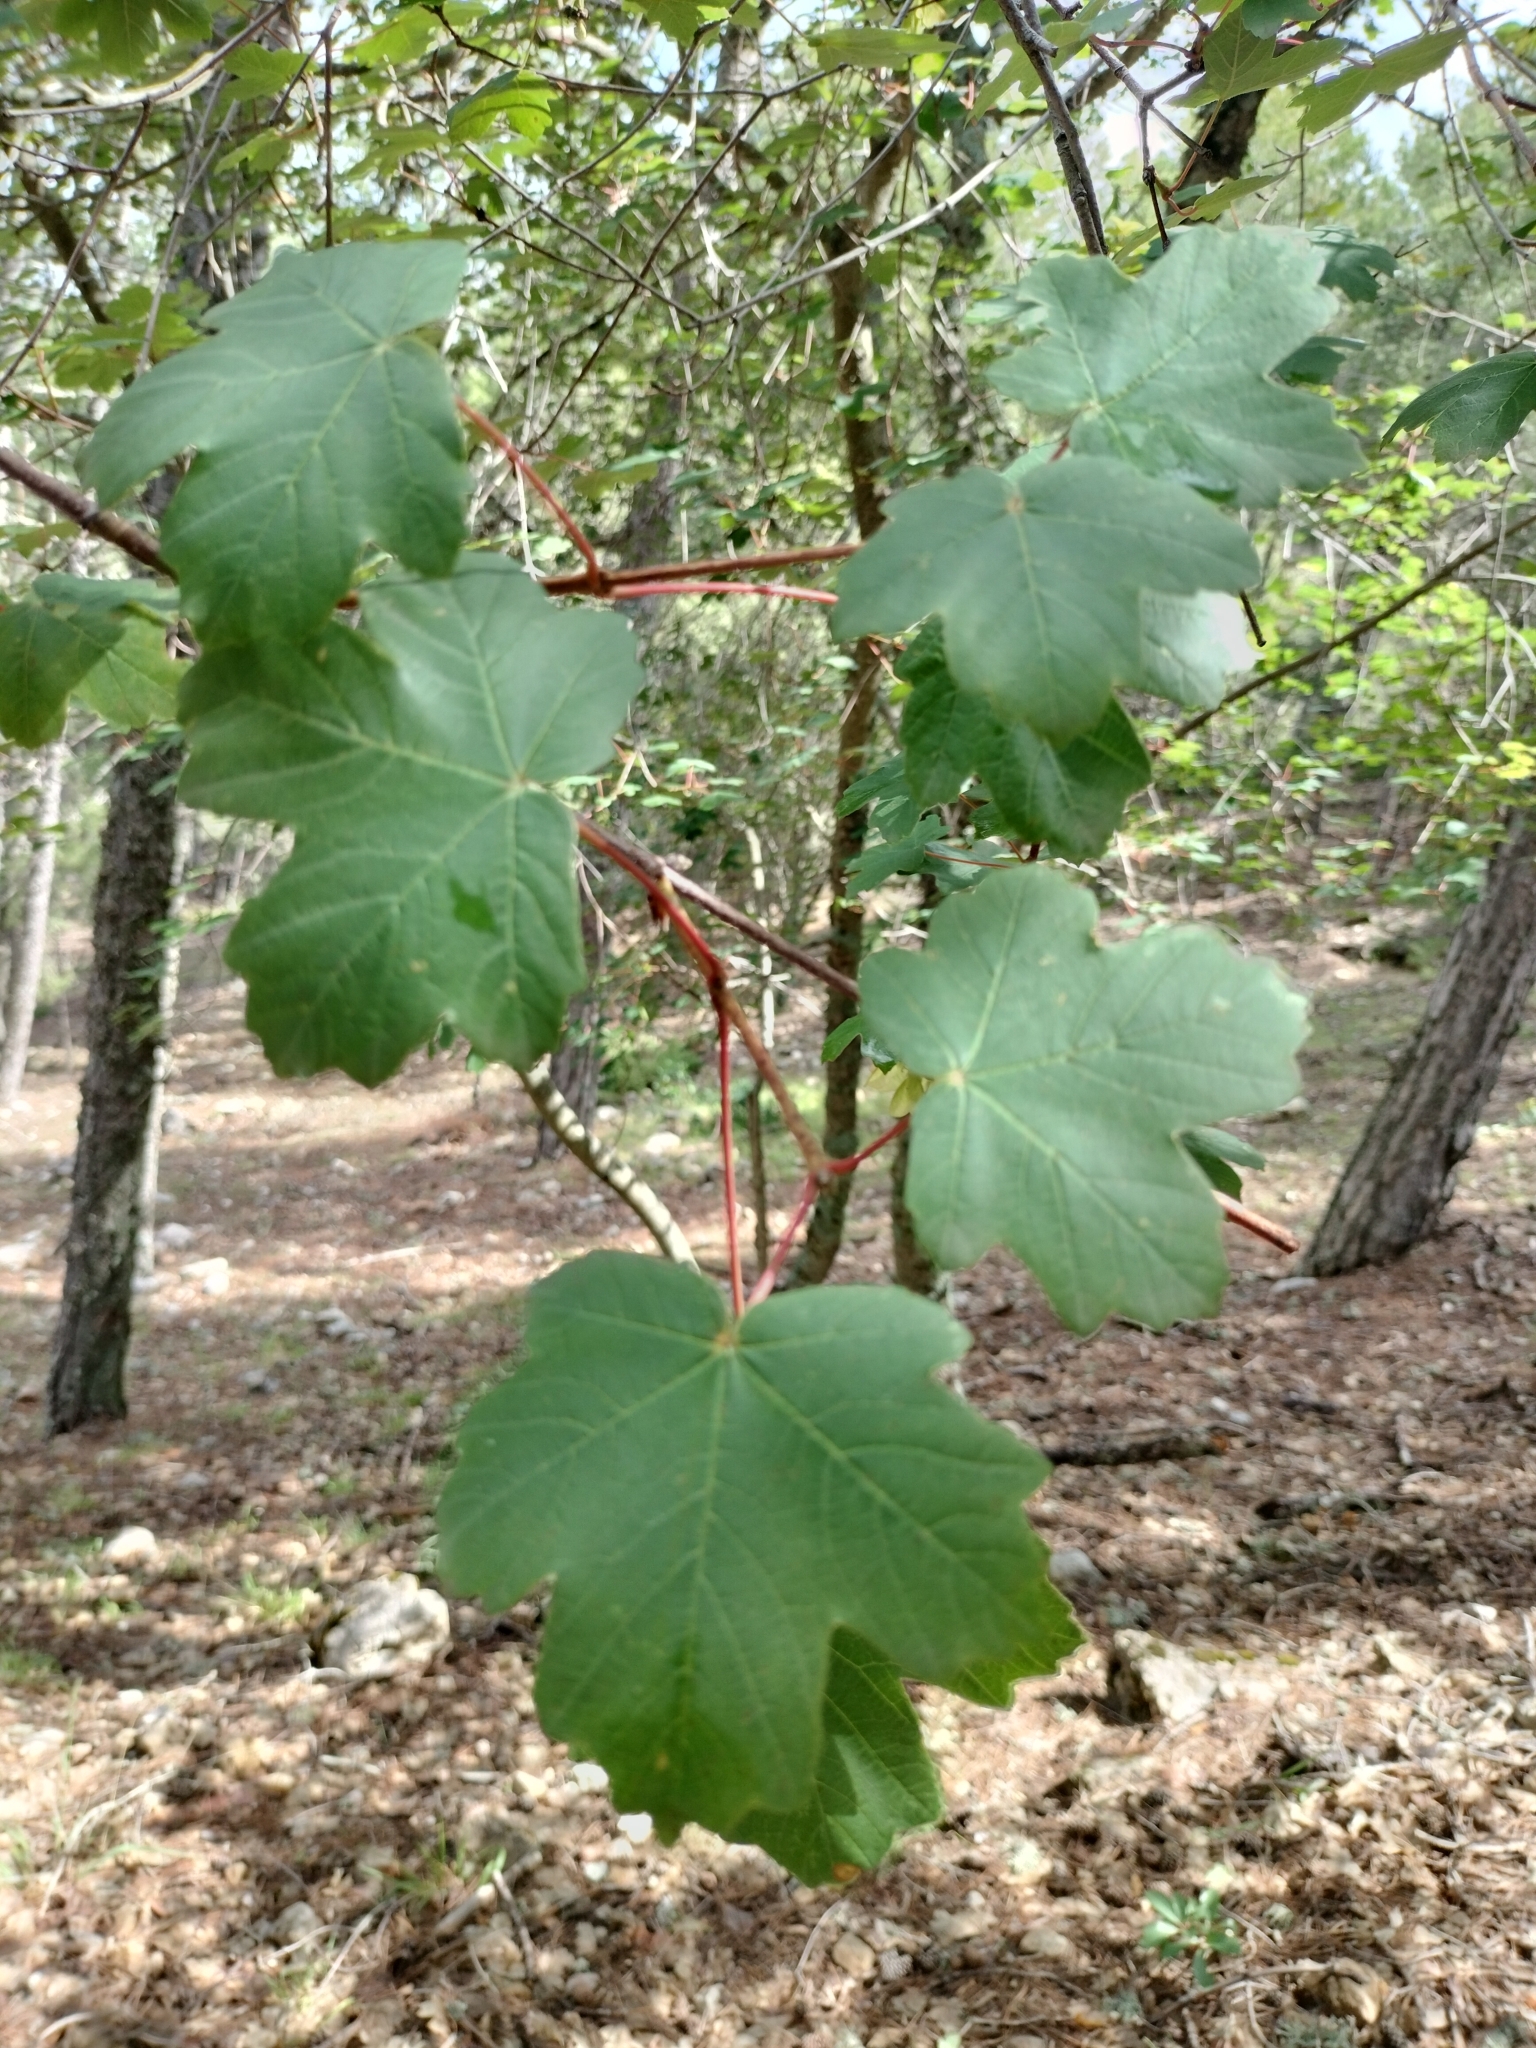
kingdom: Plantae
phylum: Tracheophyta
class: Magnoliopsida
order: Sapindales
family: Sapindaceae
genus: Acer
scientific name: Acer granatense
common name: Spanish maple
